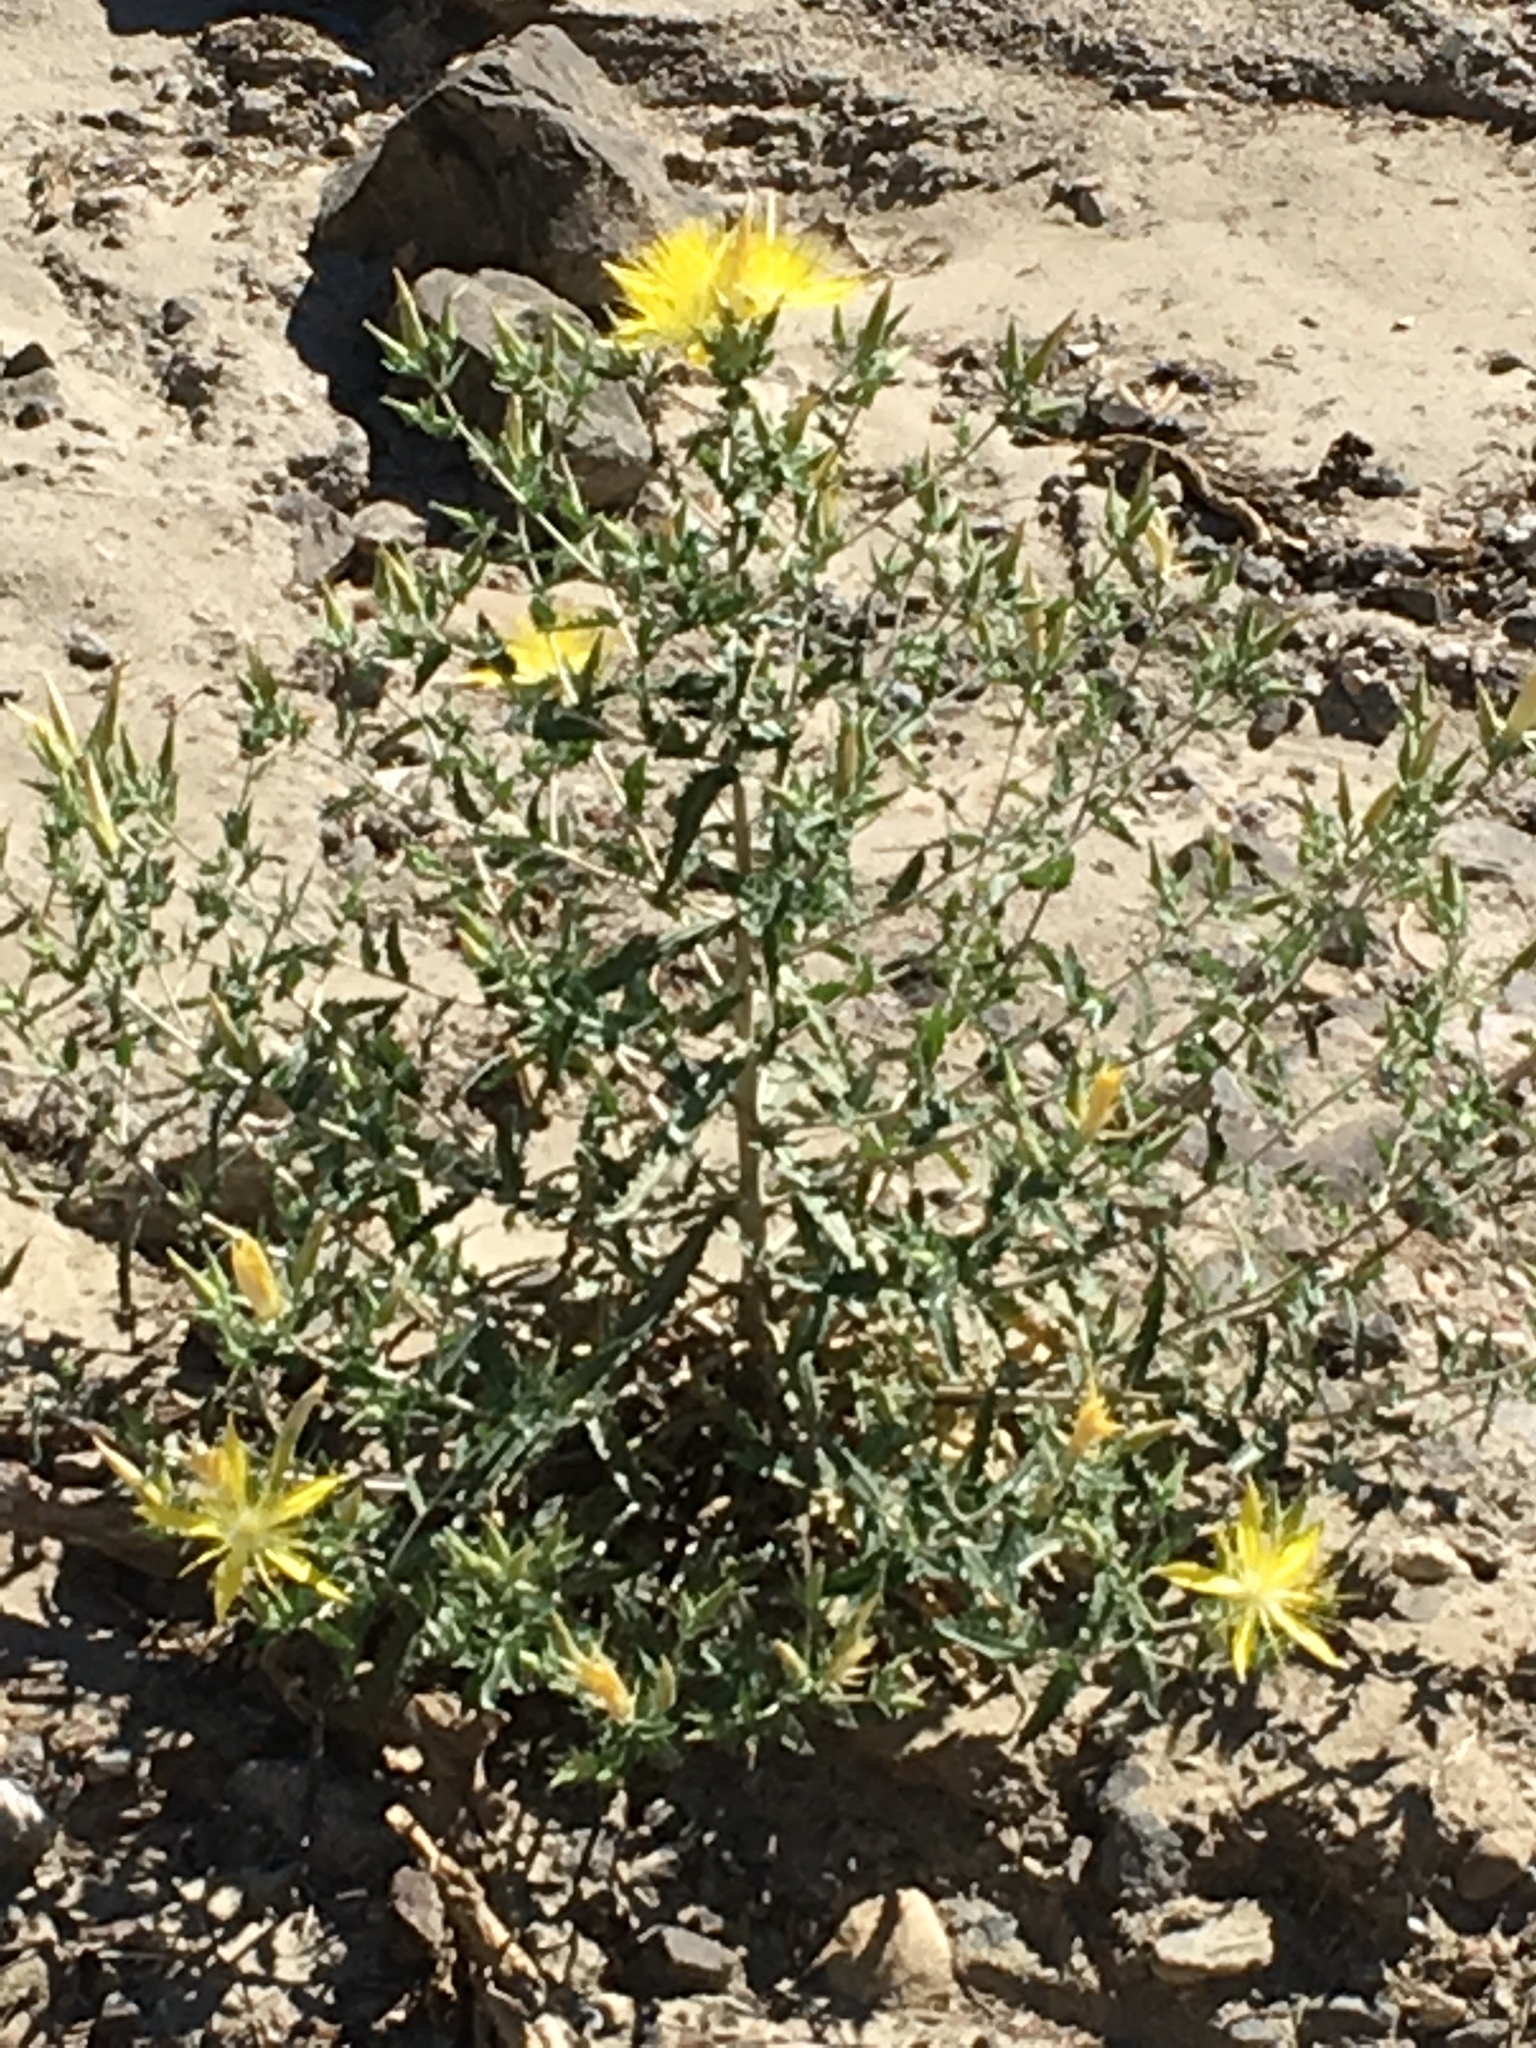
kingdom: Plantae
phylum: Tracheophyta
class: Magnoliopsida
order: Cornales
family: Loasaceae
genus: Mentzelia
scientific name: Mentzelia laevicaulis
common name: Smooth-stem blazingstar
